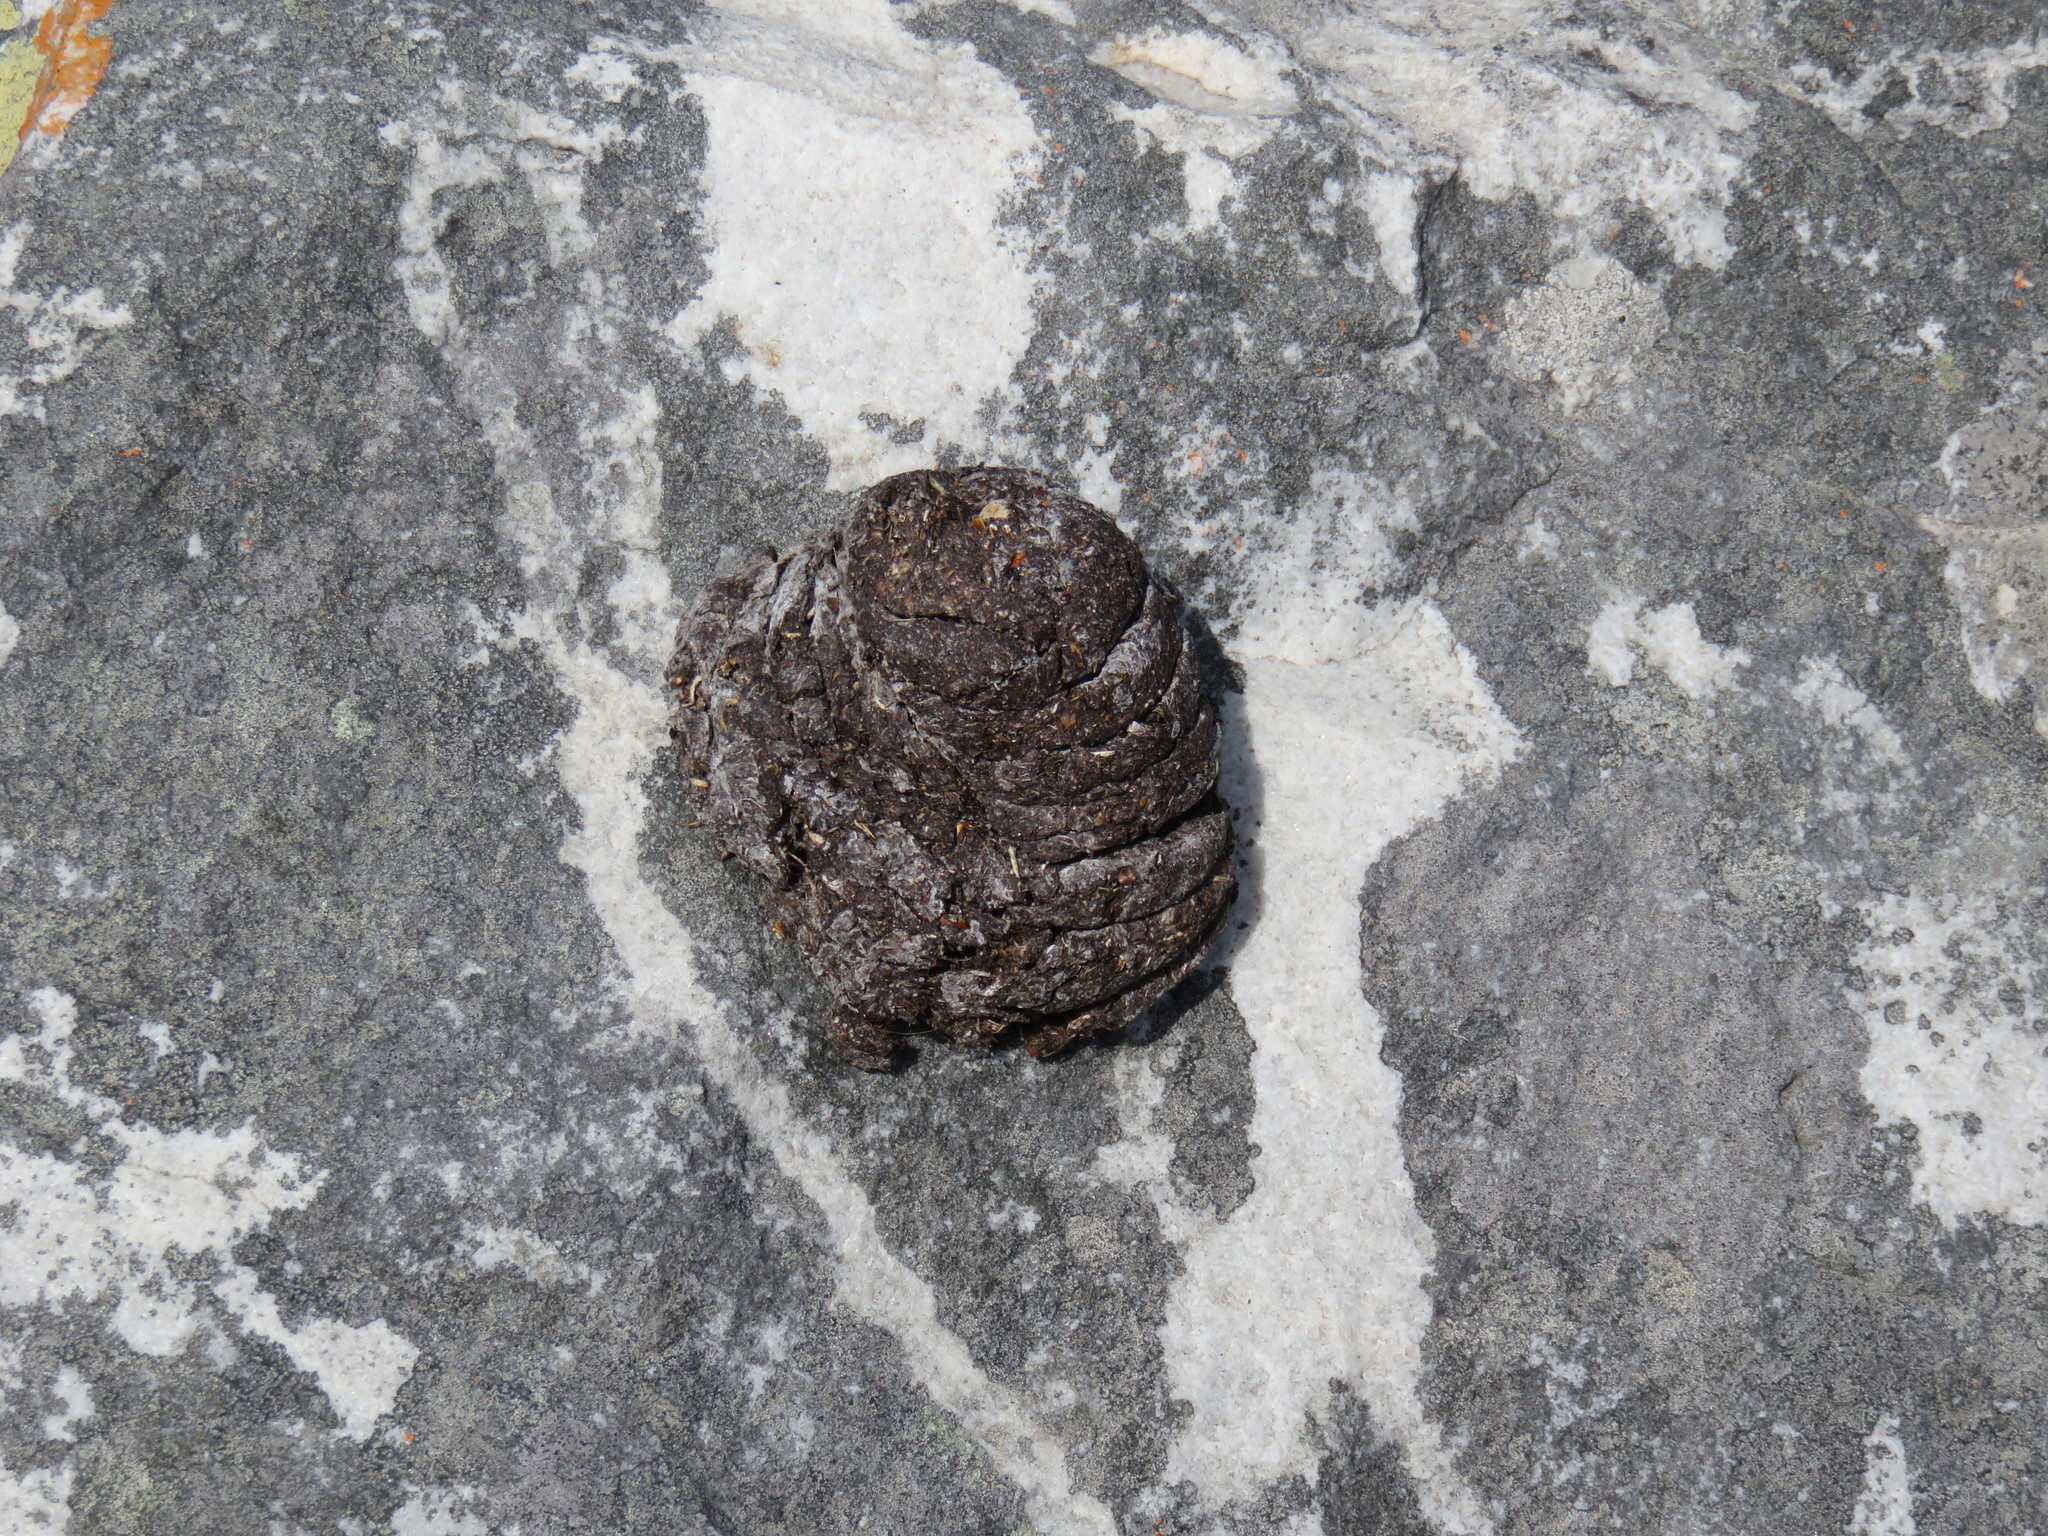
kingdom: Animalia
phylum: Chordata
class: Mammalia
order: Primates
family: Cercopithecidae
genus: Papio
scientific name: Papio ursinus
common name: Chacma baboon
